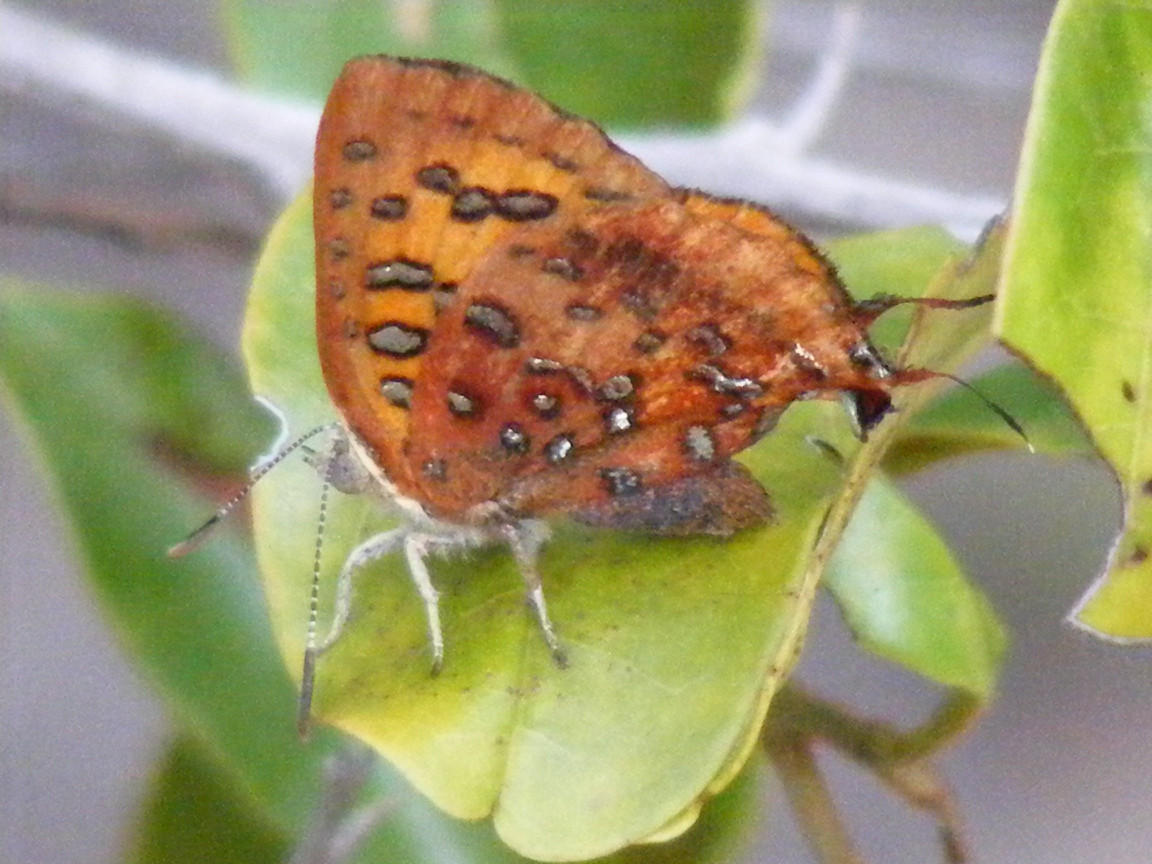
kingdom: Animalia
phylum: Arthropoda
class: Insecta
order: Lepidoptera
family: Lycaenidae
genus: Axiocerses
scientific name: Axiocerses perion
